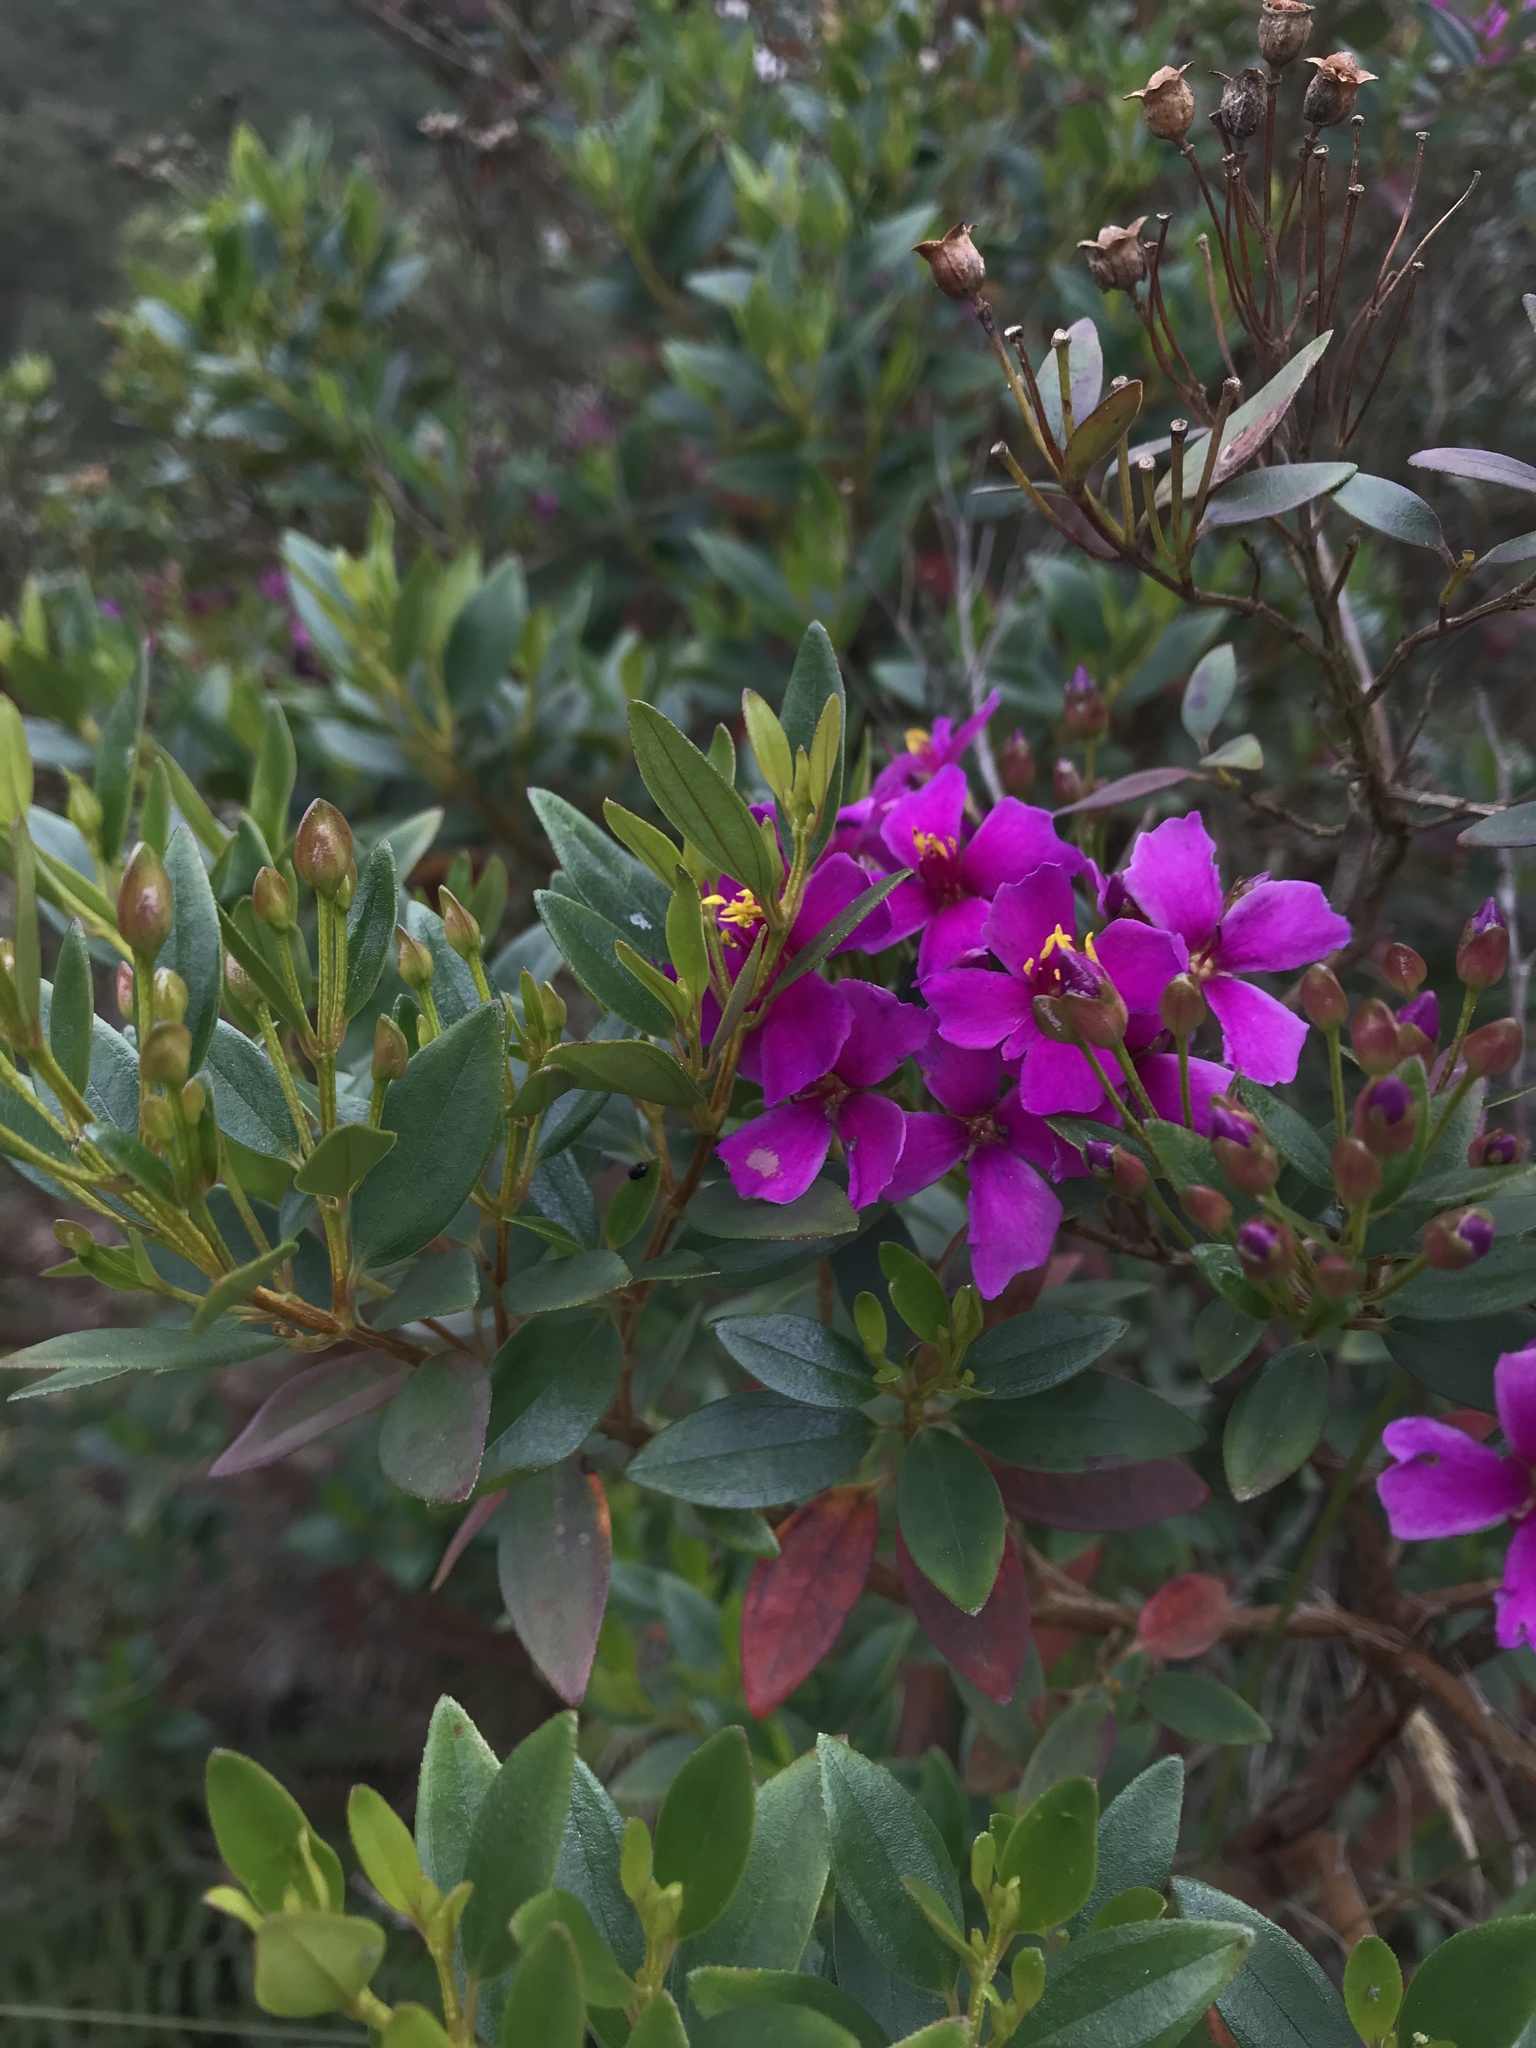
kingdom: Plantae
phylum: Tracheophyta
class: Magnoliopsida
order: Myrtales
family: Melastomataceae
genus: Bucquetia
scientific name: Bucquetia glutinosa
